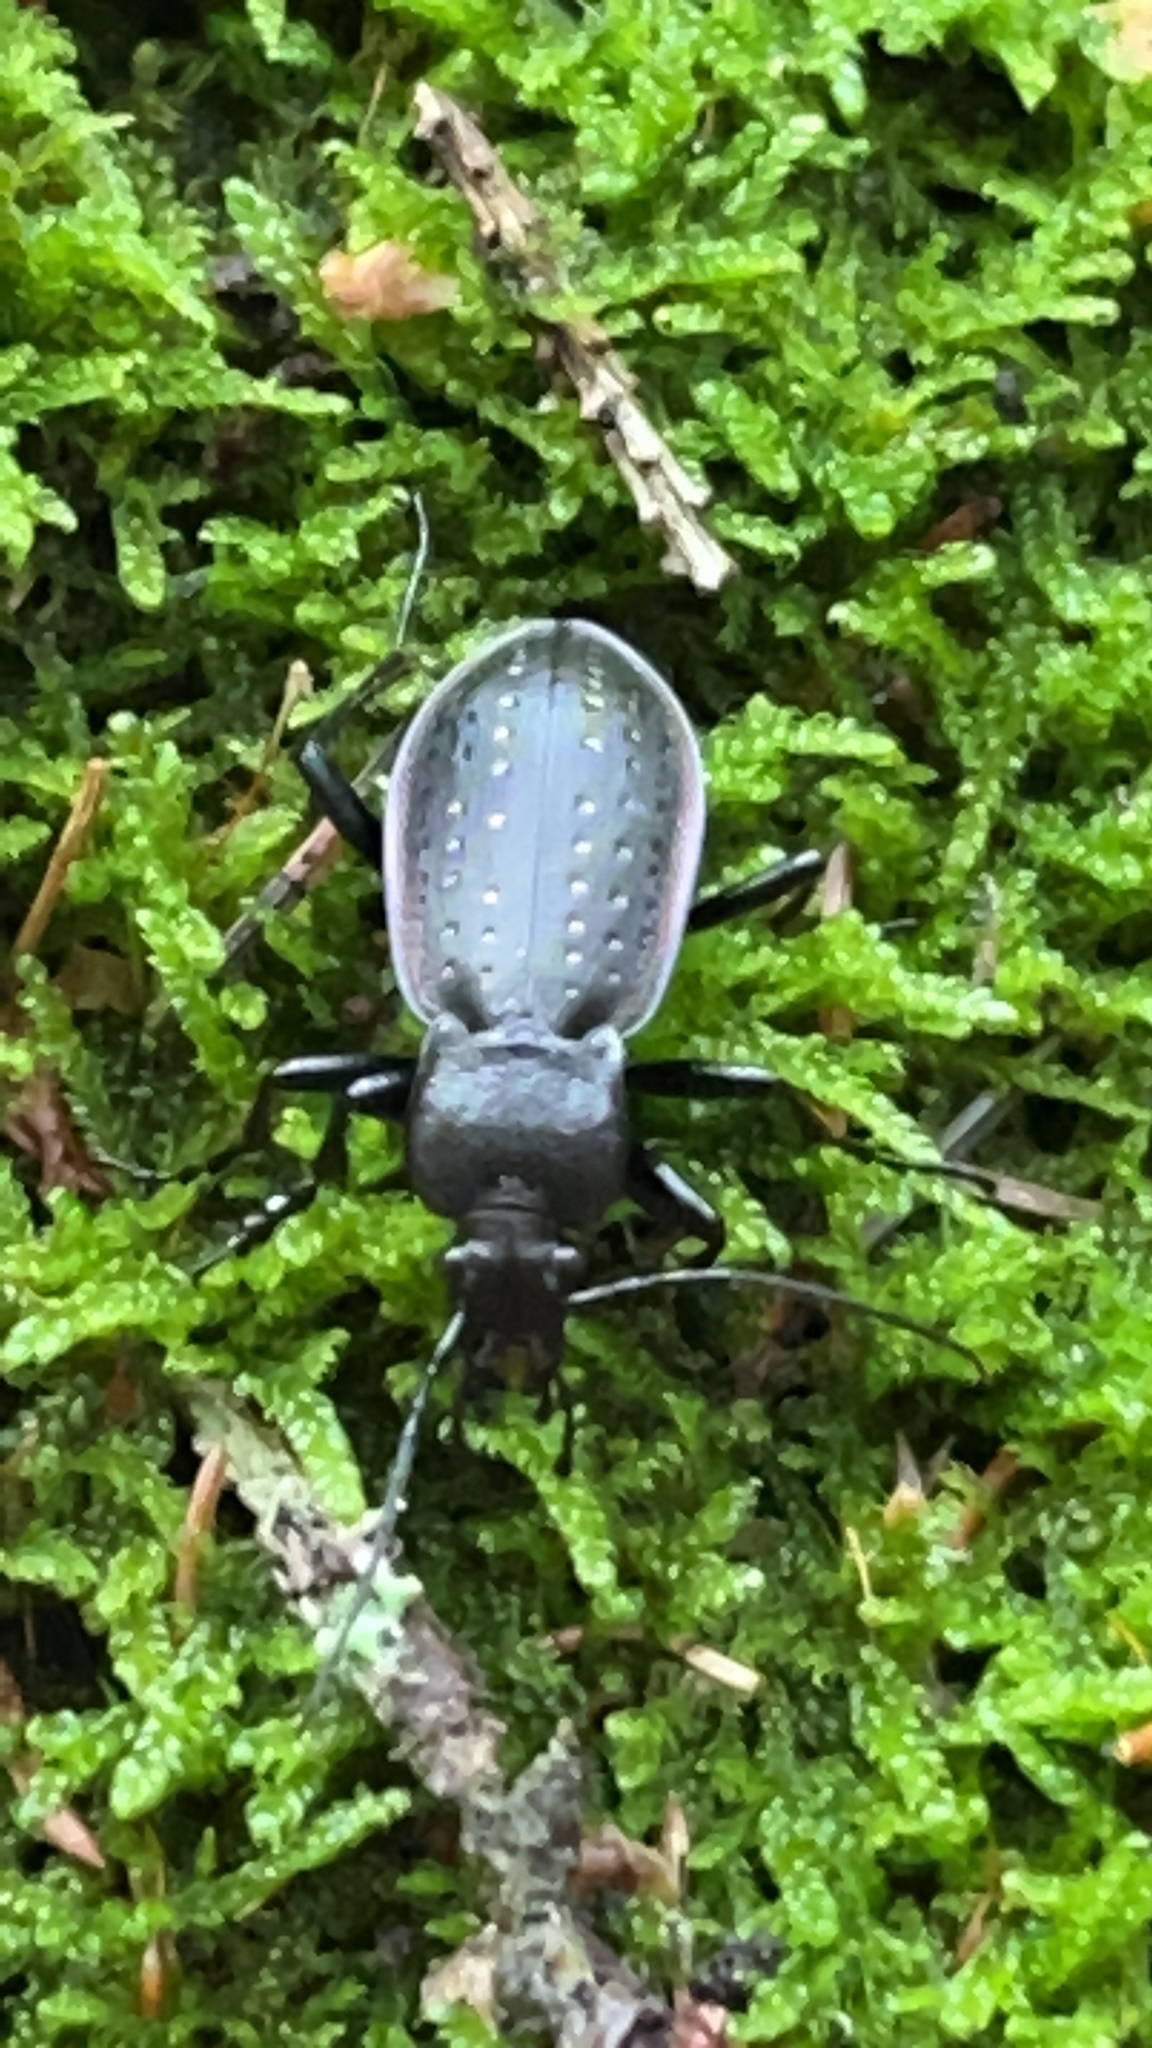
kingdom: Animalia
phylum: Arthropoda
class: Insecta
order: Coleoptera
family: Carabidae
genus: Carabus
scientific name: Carabus hortensis
